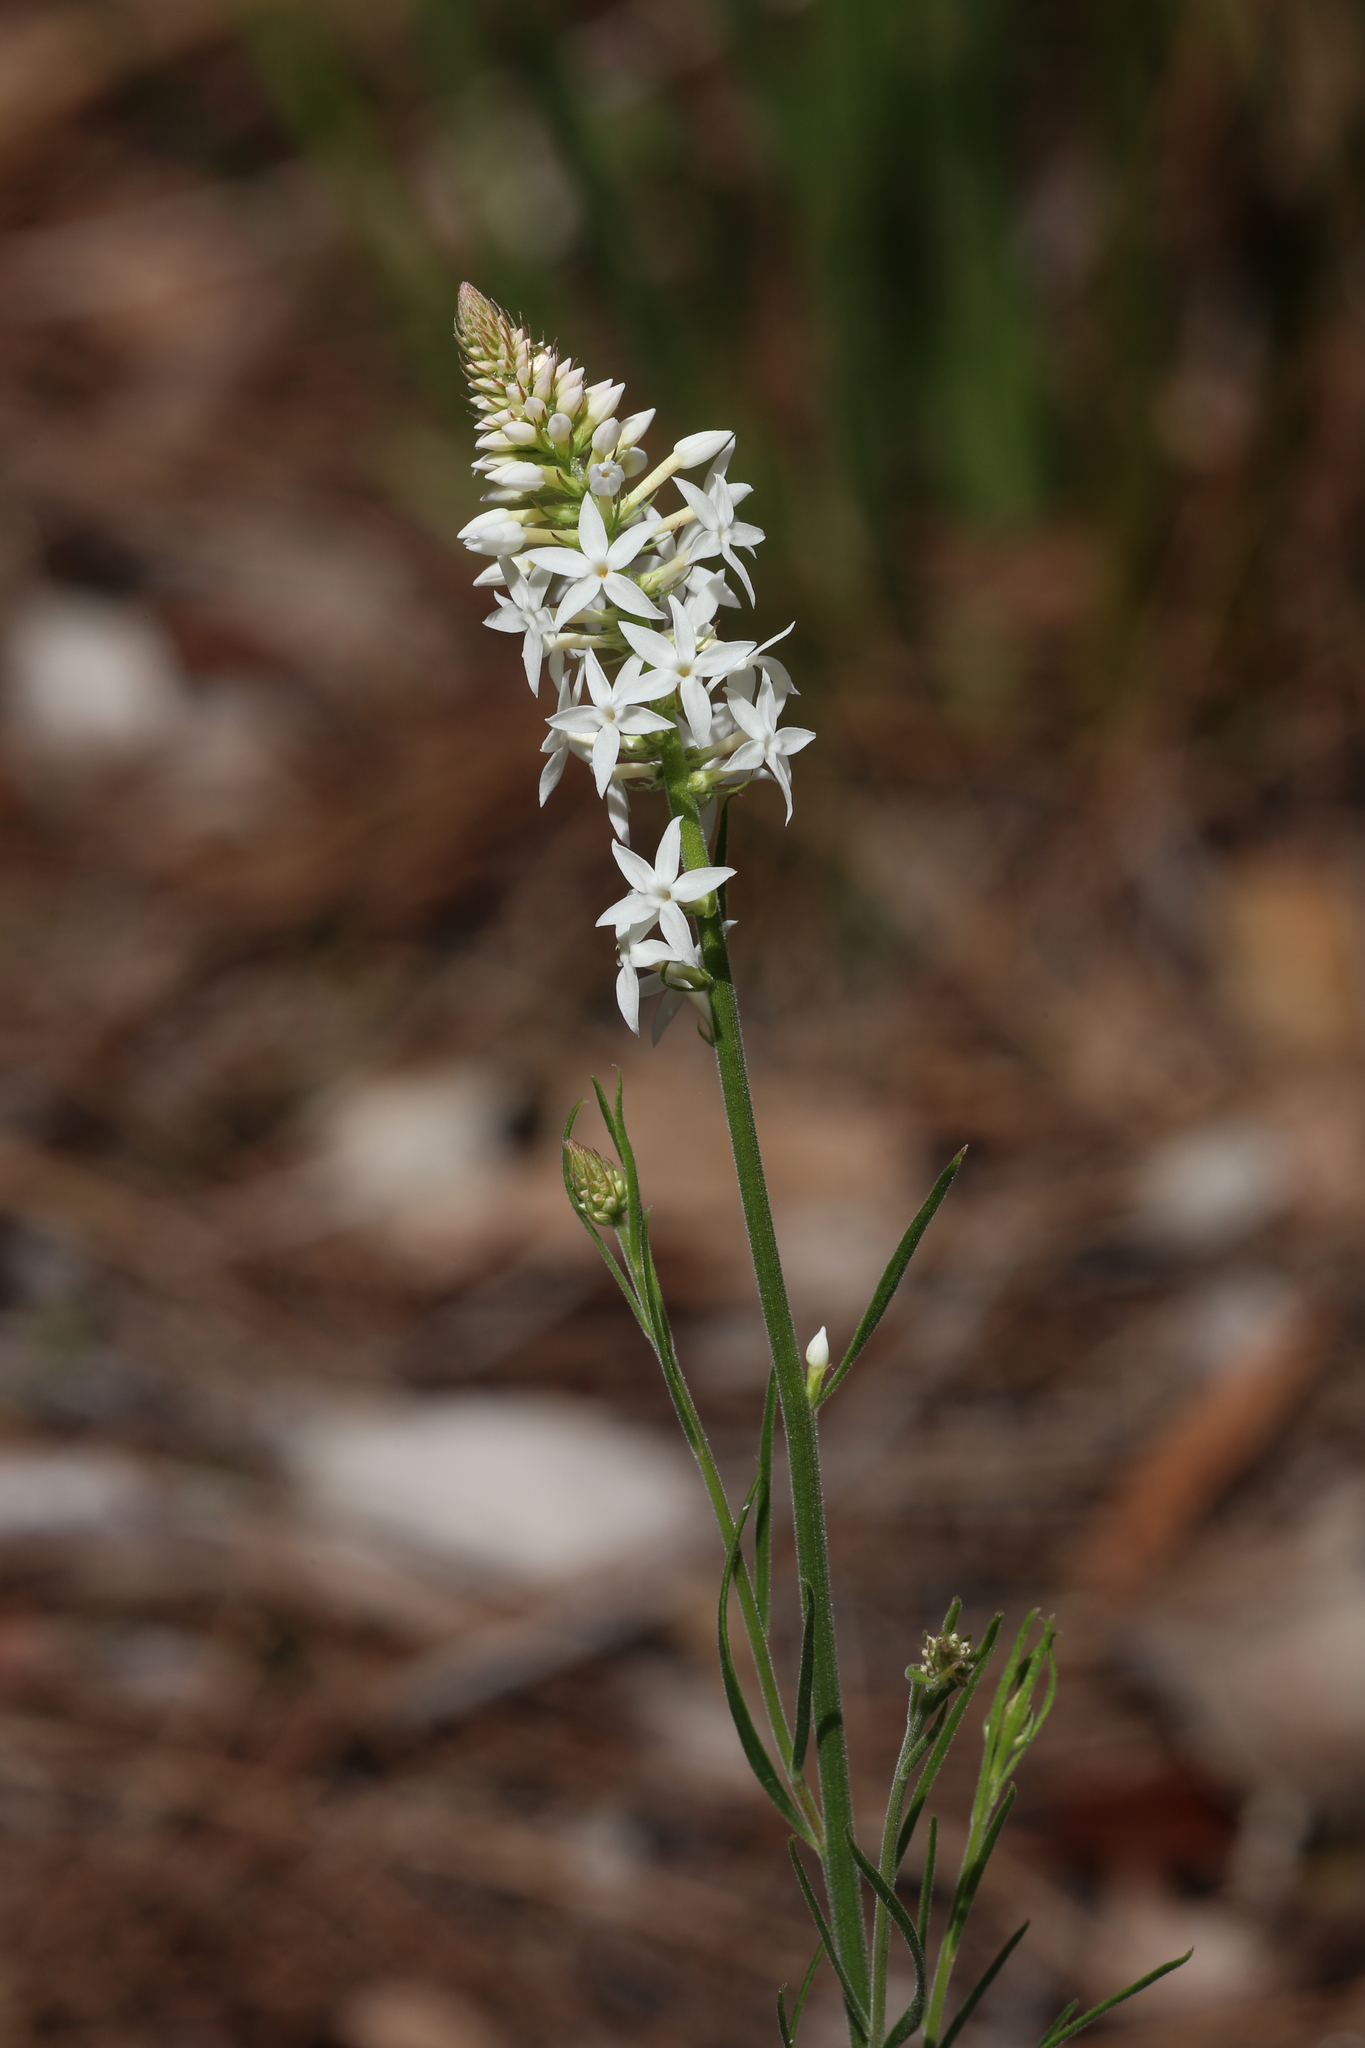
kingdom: Plantae
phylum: Tracheophyta
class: Magnoliopsida
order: Celastrales
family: Celastraceae
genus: Stackhousia
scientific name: Stackhousia monogyna
